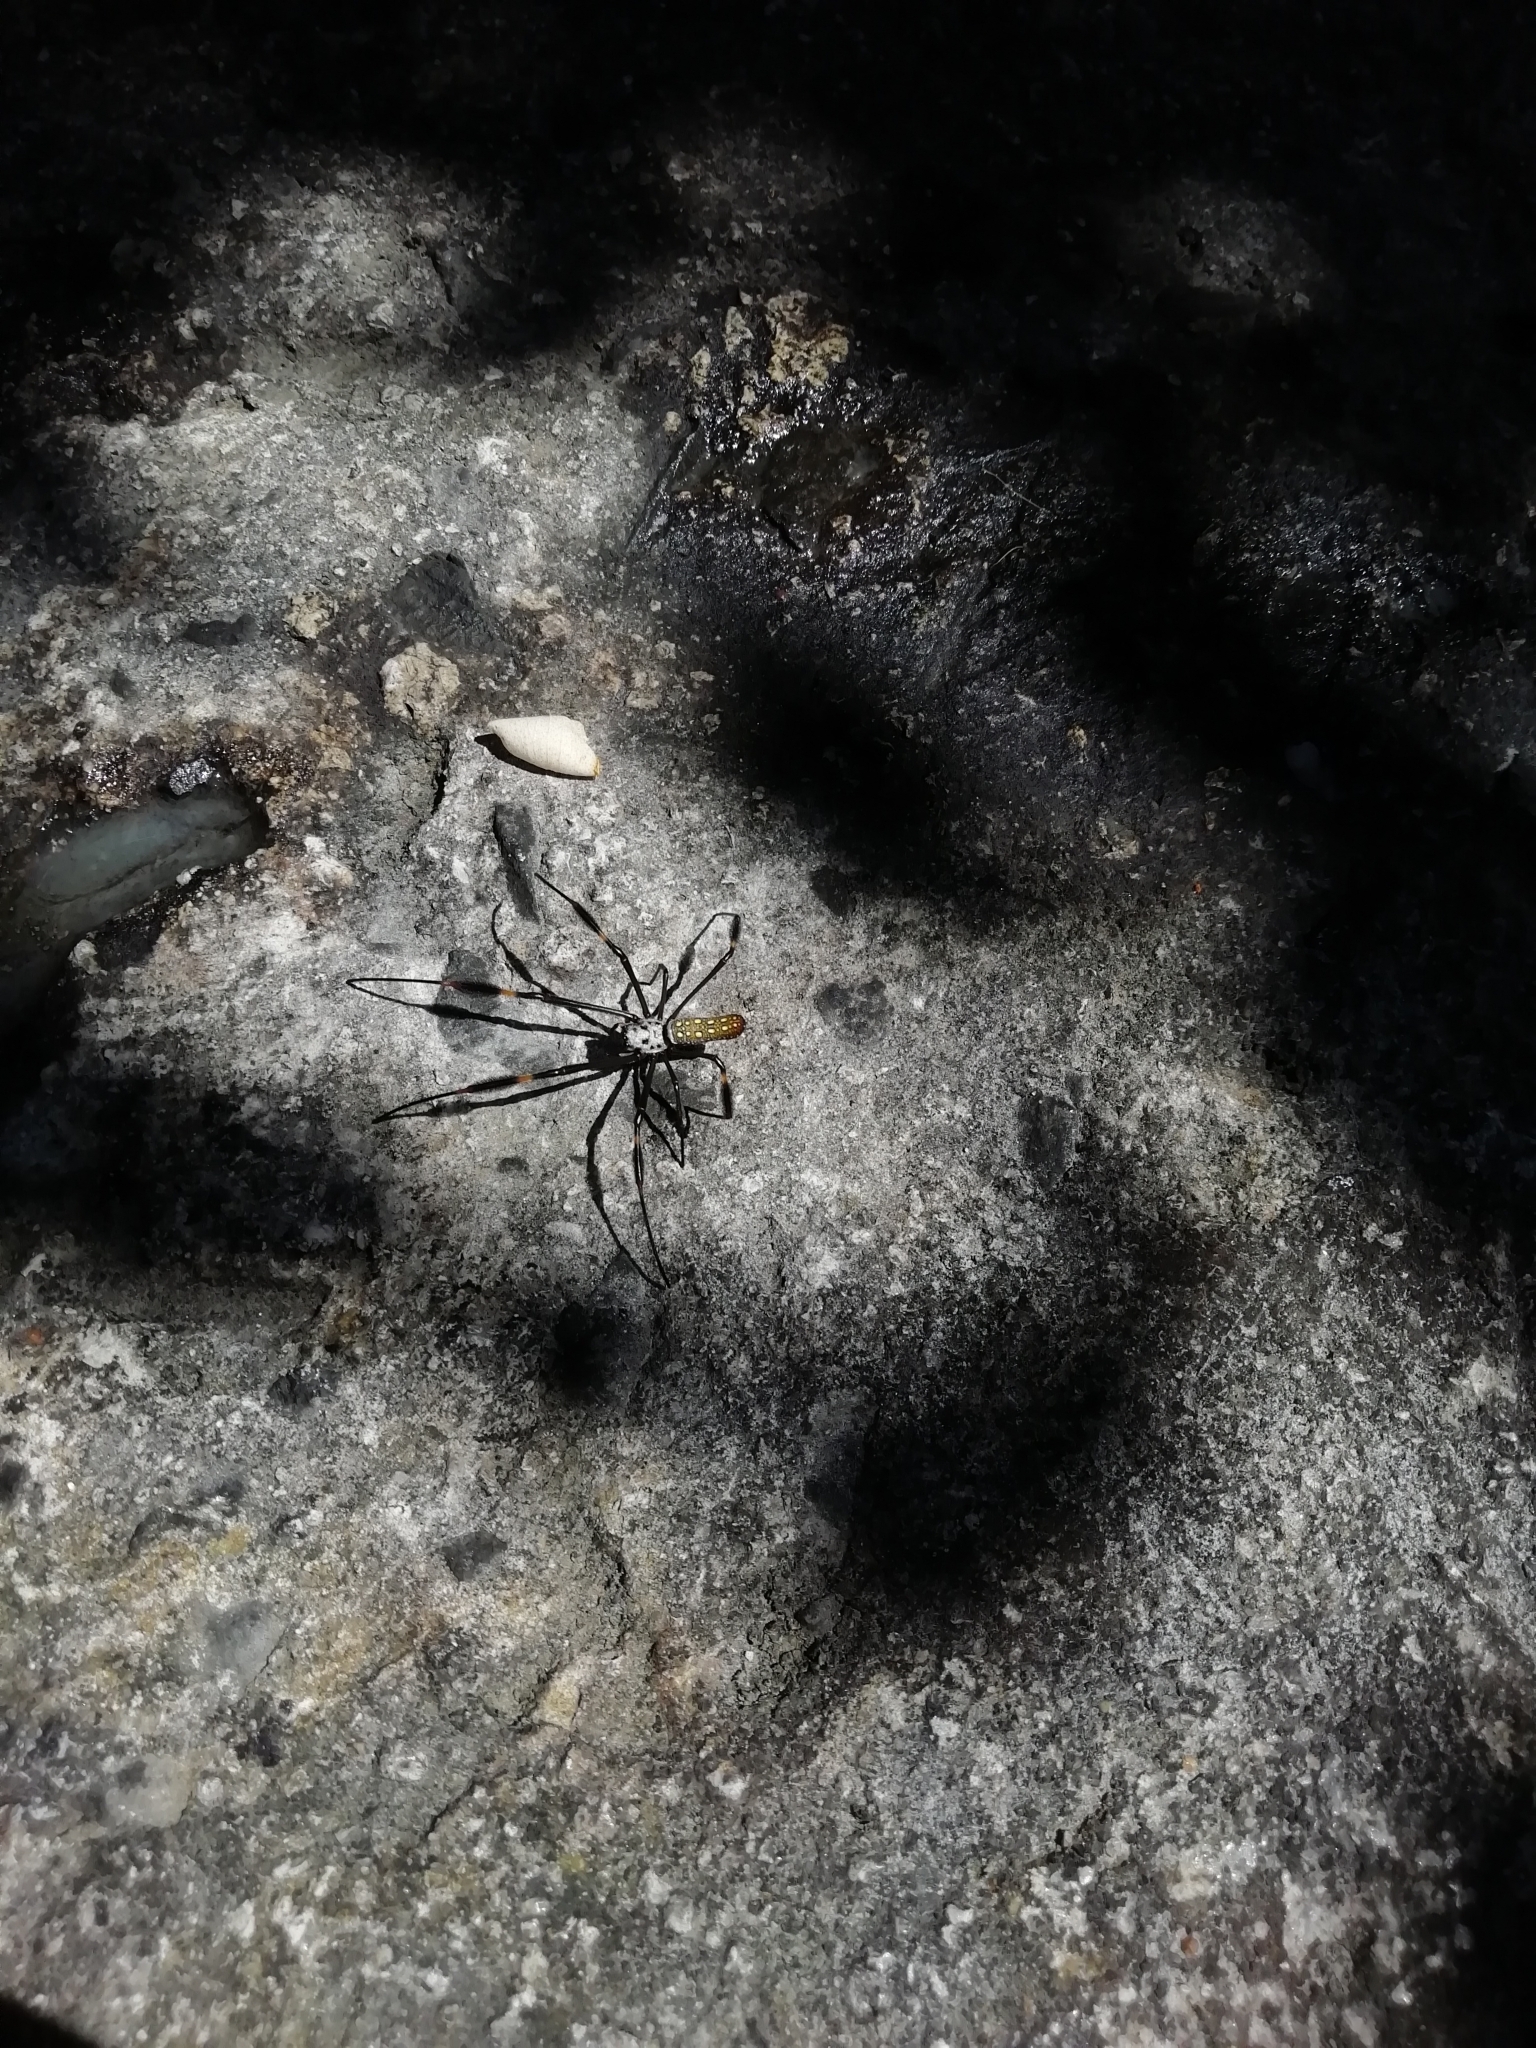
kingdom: Animalia
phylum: Arthropoda
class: Arachnida
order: Araneae
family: Araneidae
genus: Trichonephila
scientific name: Trichonephila clavipes
